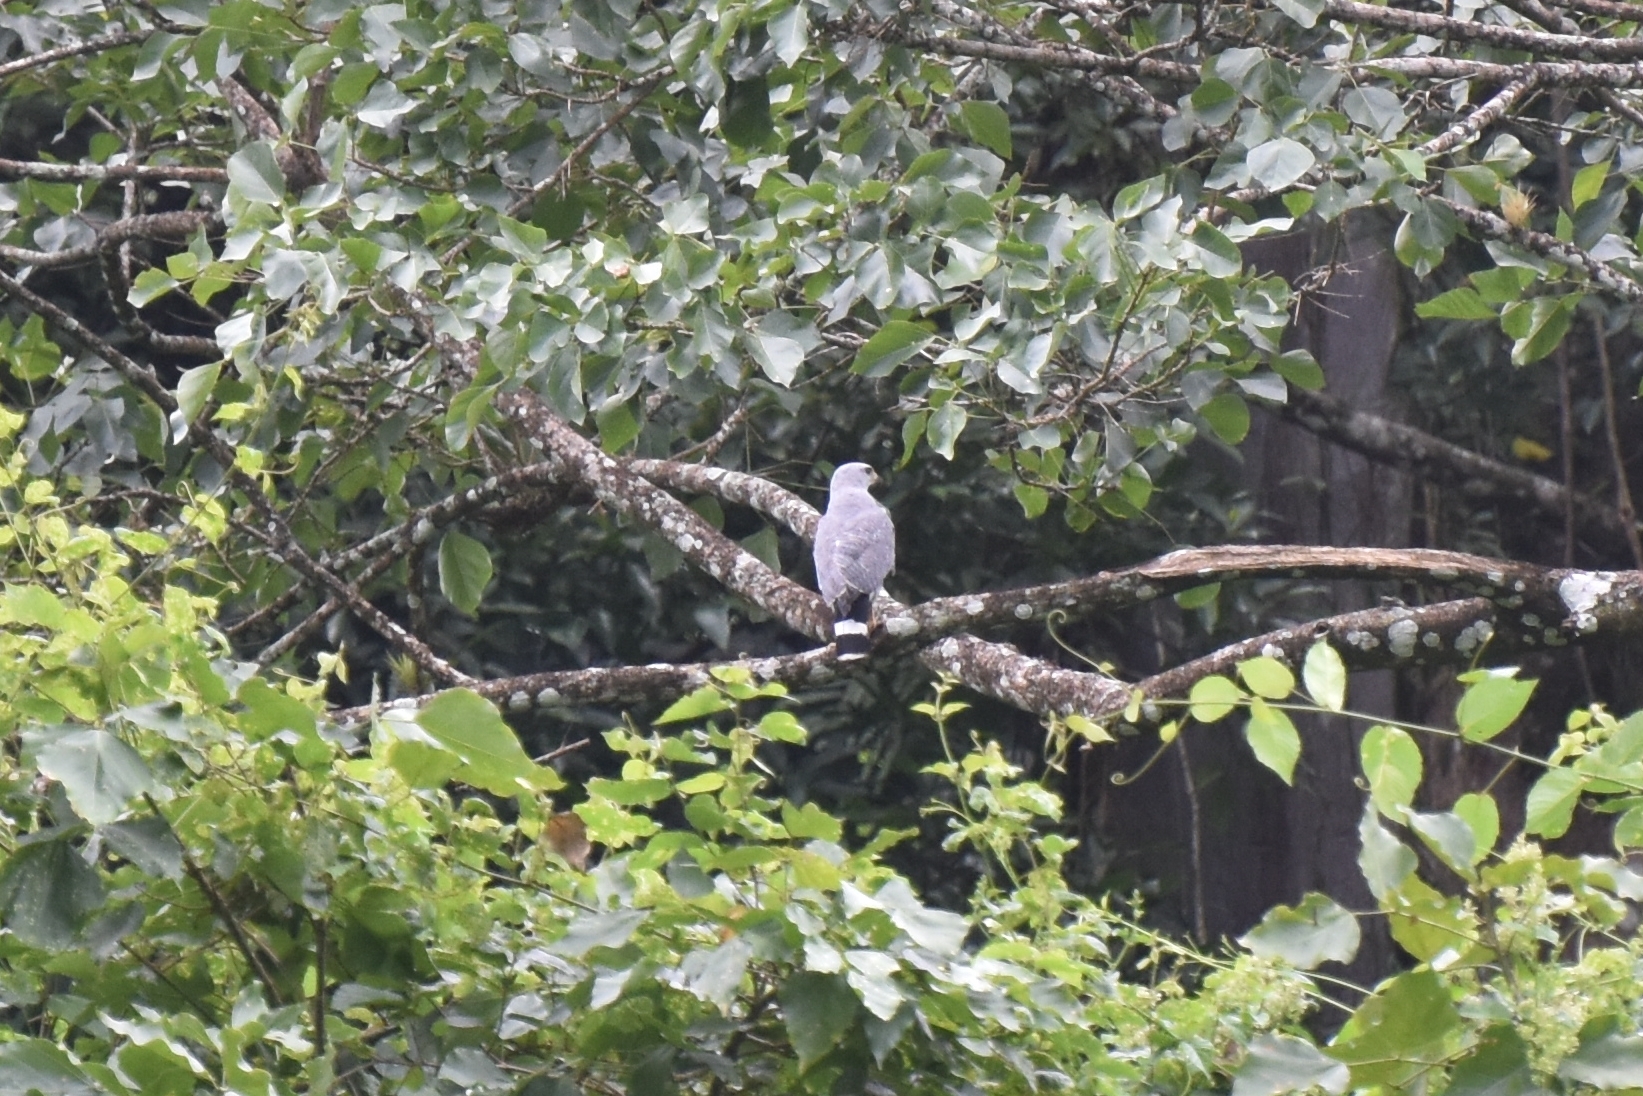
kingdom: Animalia
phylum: Chordata
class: Aves
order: Accipitriformes
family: Accipitridae
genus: Buteo
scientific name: Buteo nitidus
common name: Grey-lined hawk
